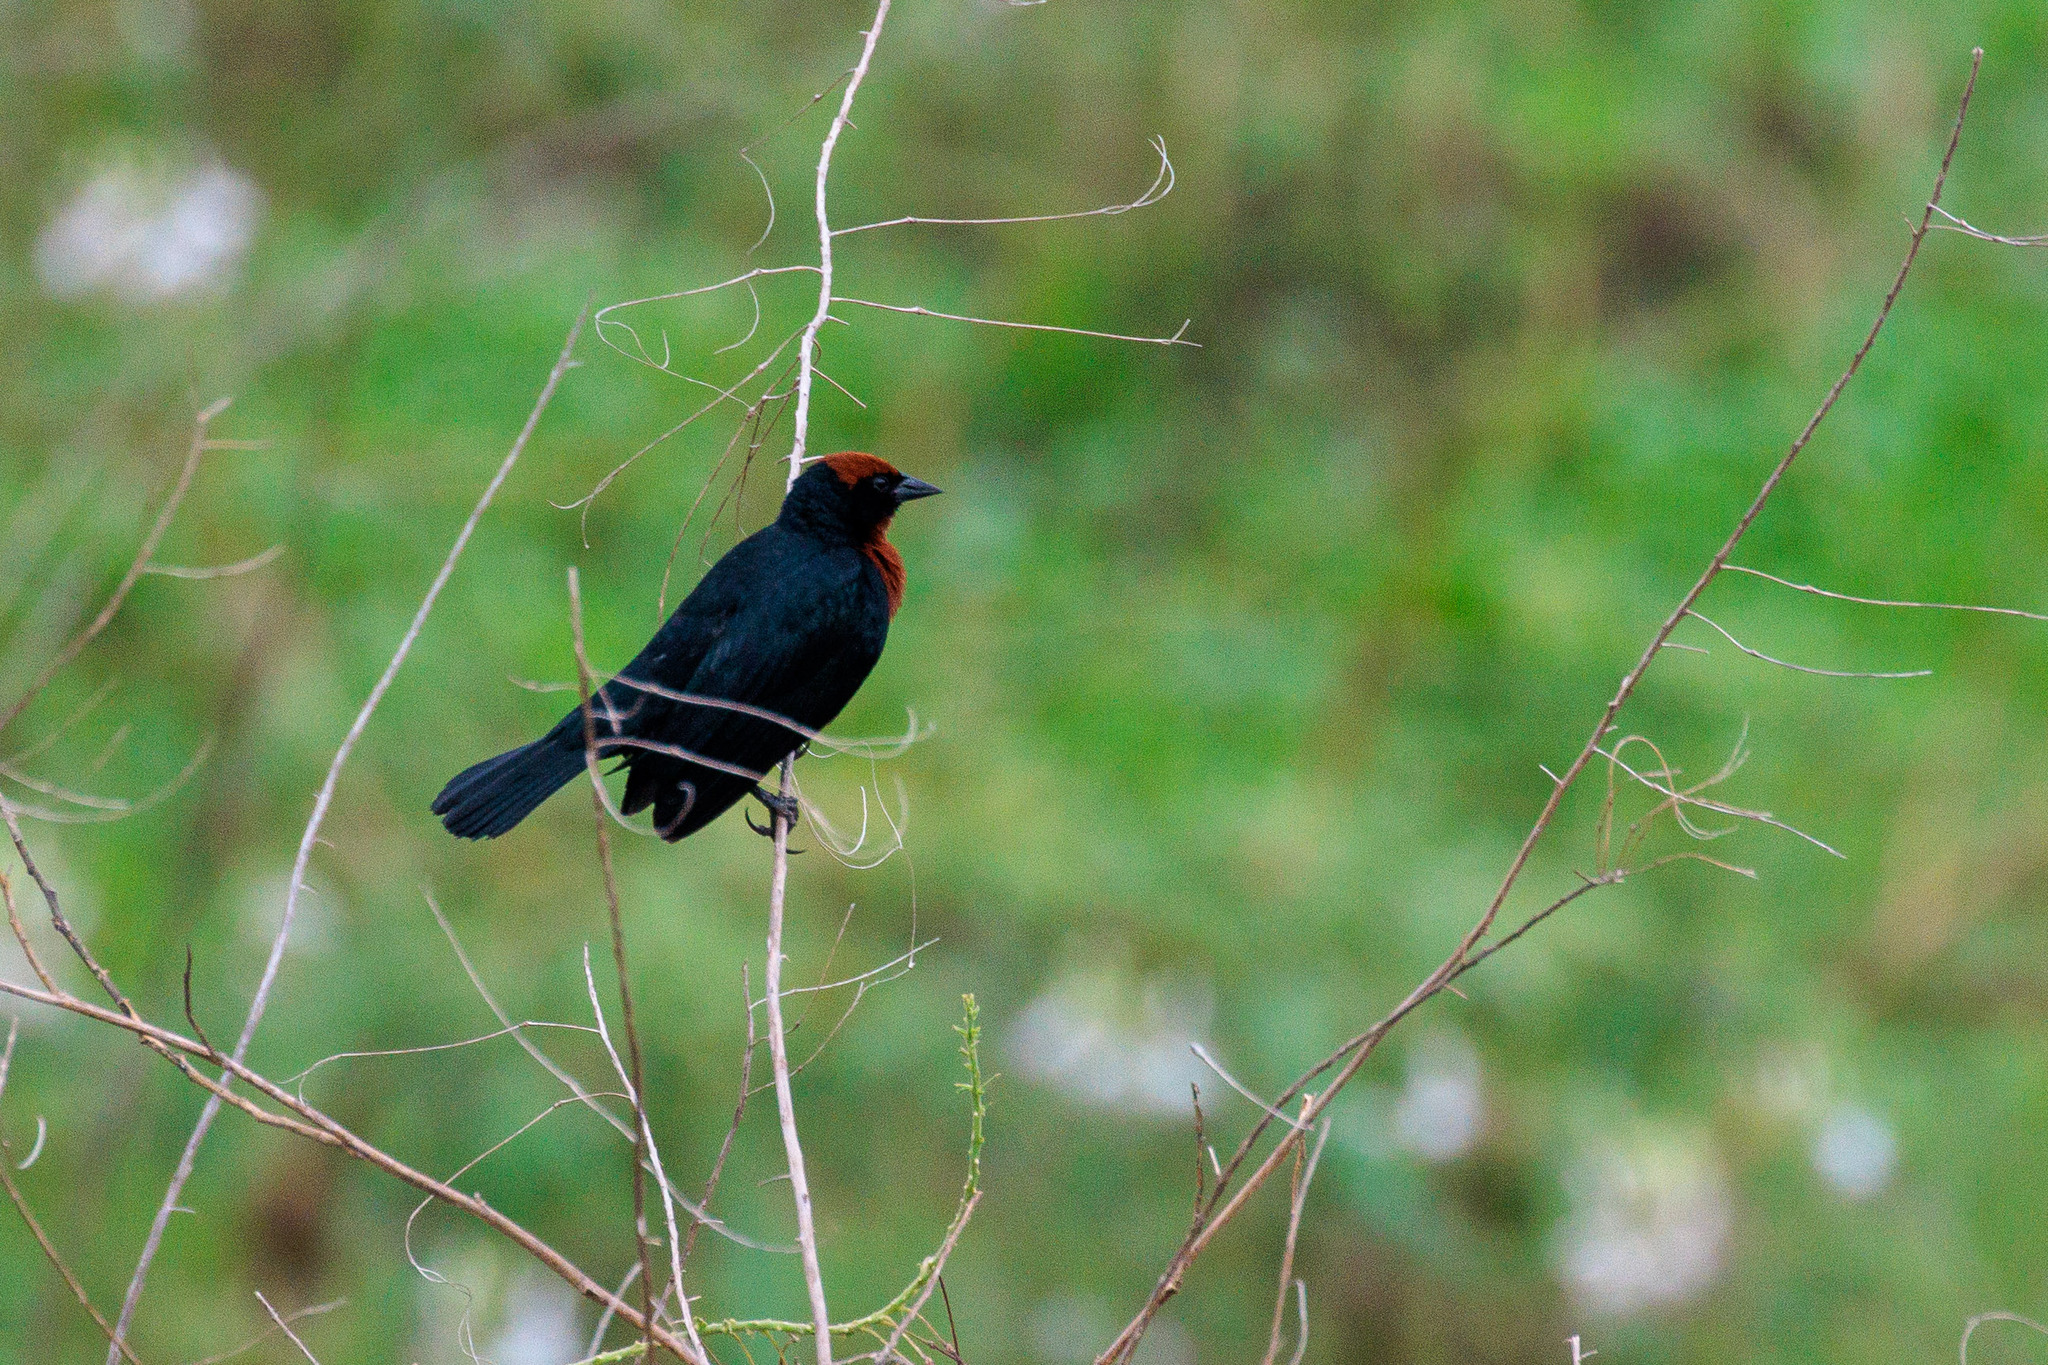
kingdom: Animalia
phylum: Chordata
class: Aves
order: Passeriformes
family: Icteridae
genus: Chrysomus
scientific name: Chrysomus ruficapillus
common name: Chestnut-capped blackbird
